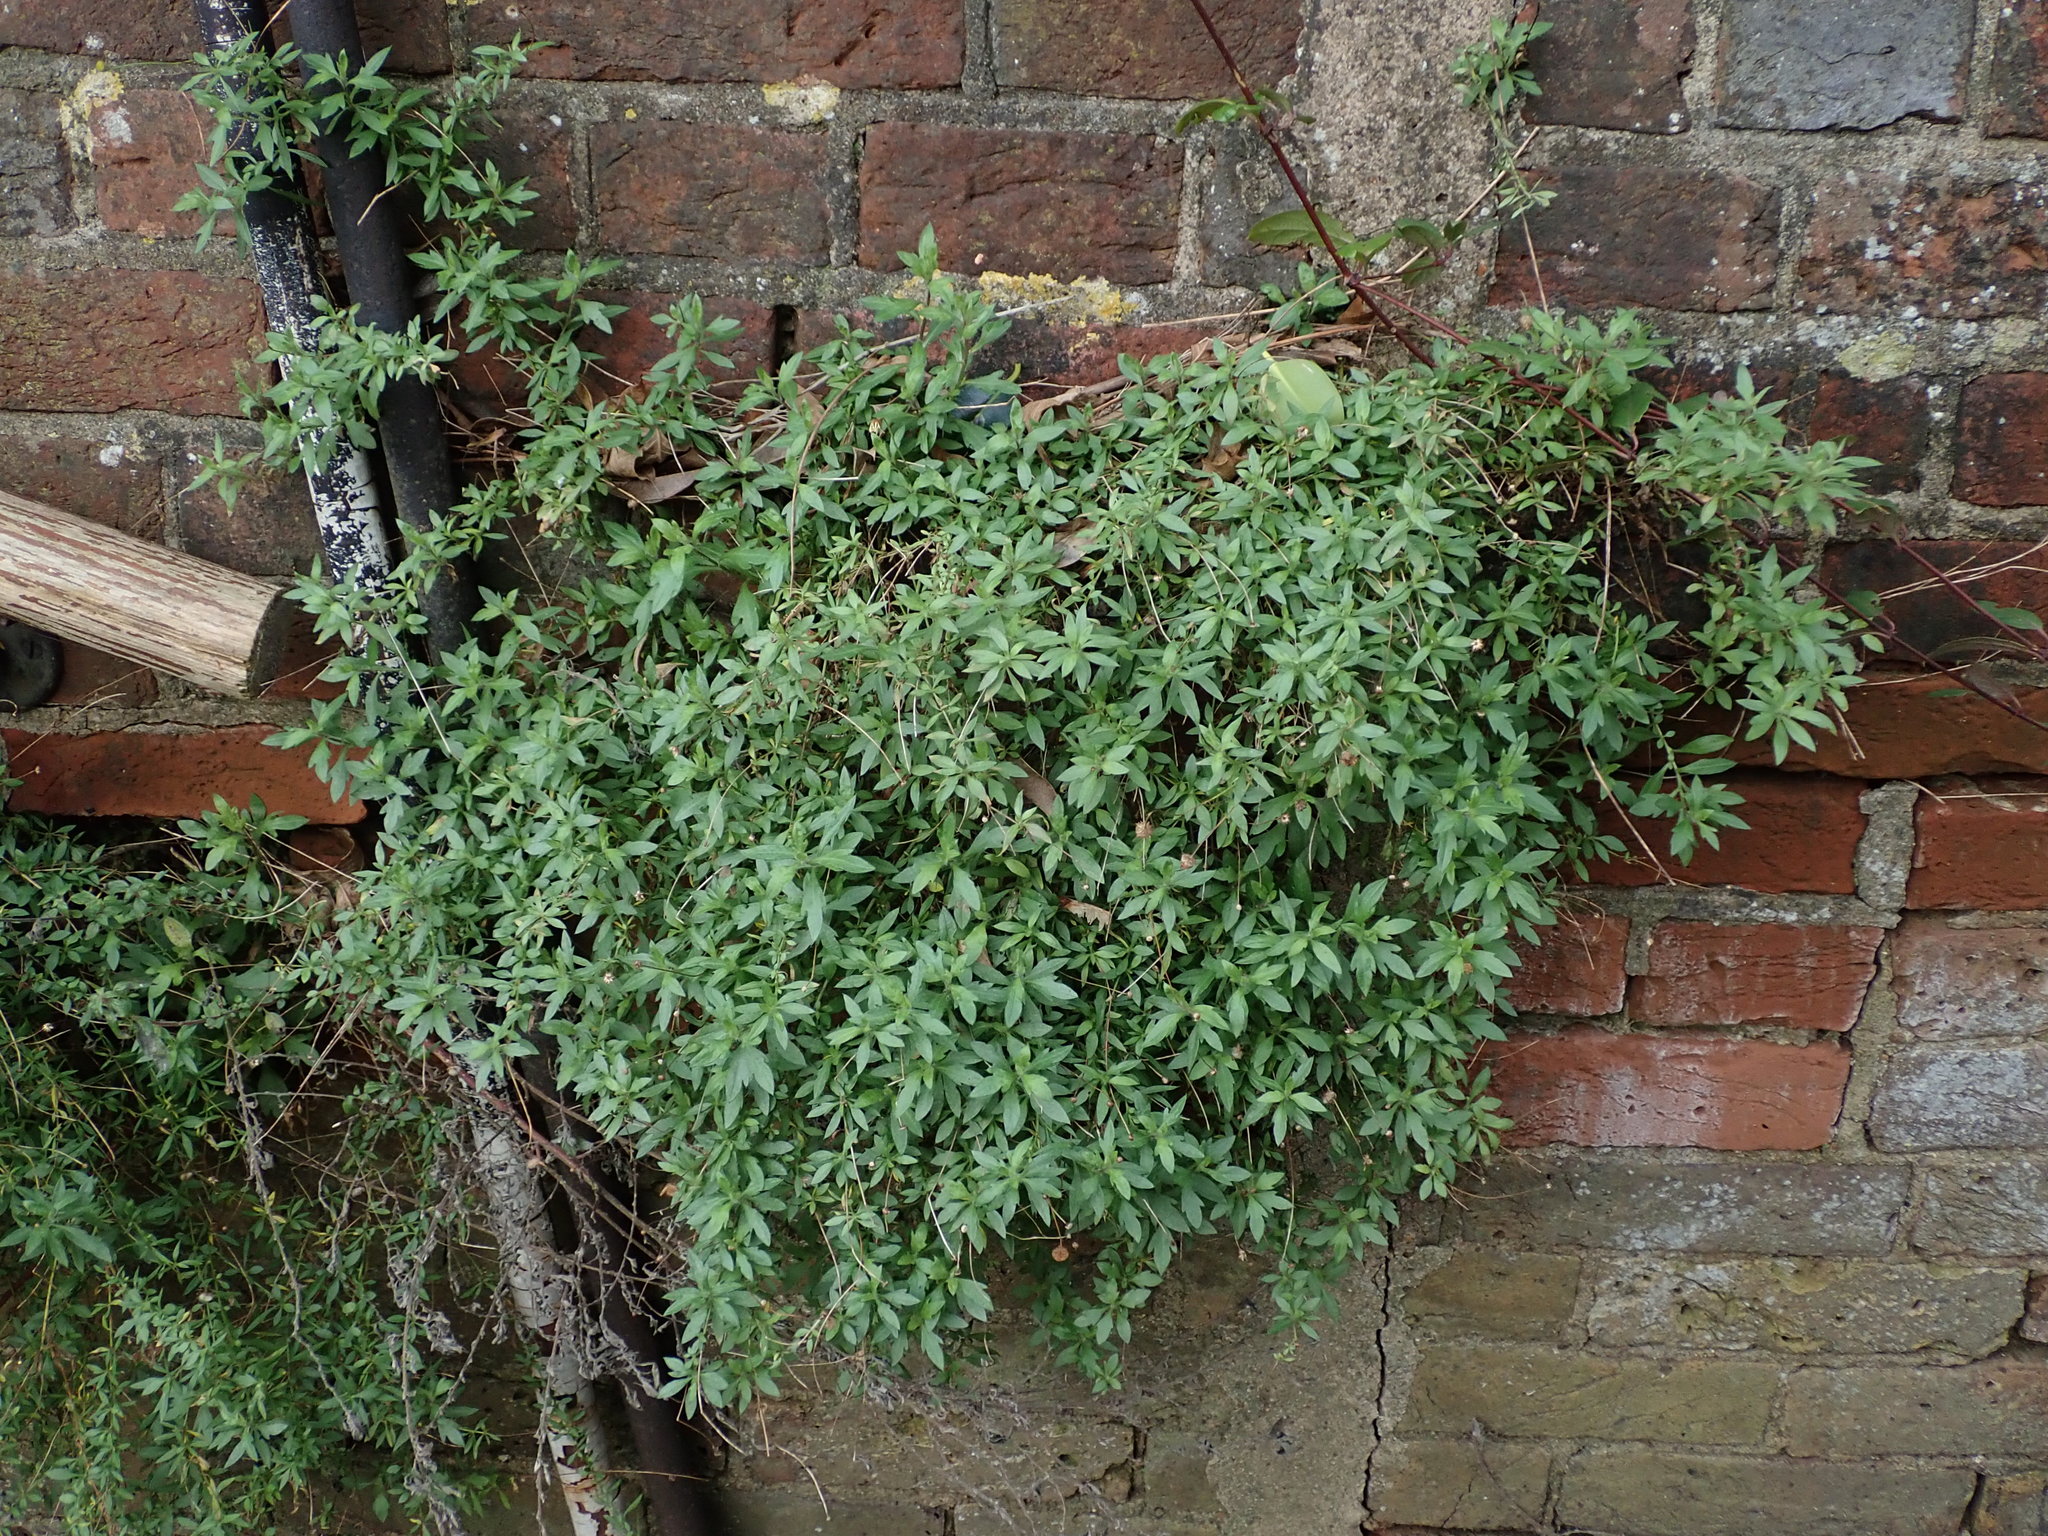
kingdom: Plantae
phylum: Tracheophyta
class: Magnoliopsida
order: Asterales
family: Asteraceae
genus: Erigeron
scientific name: Erigeron karvinskianus
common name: Mexican fleabane
